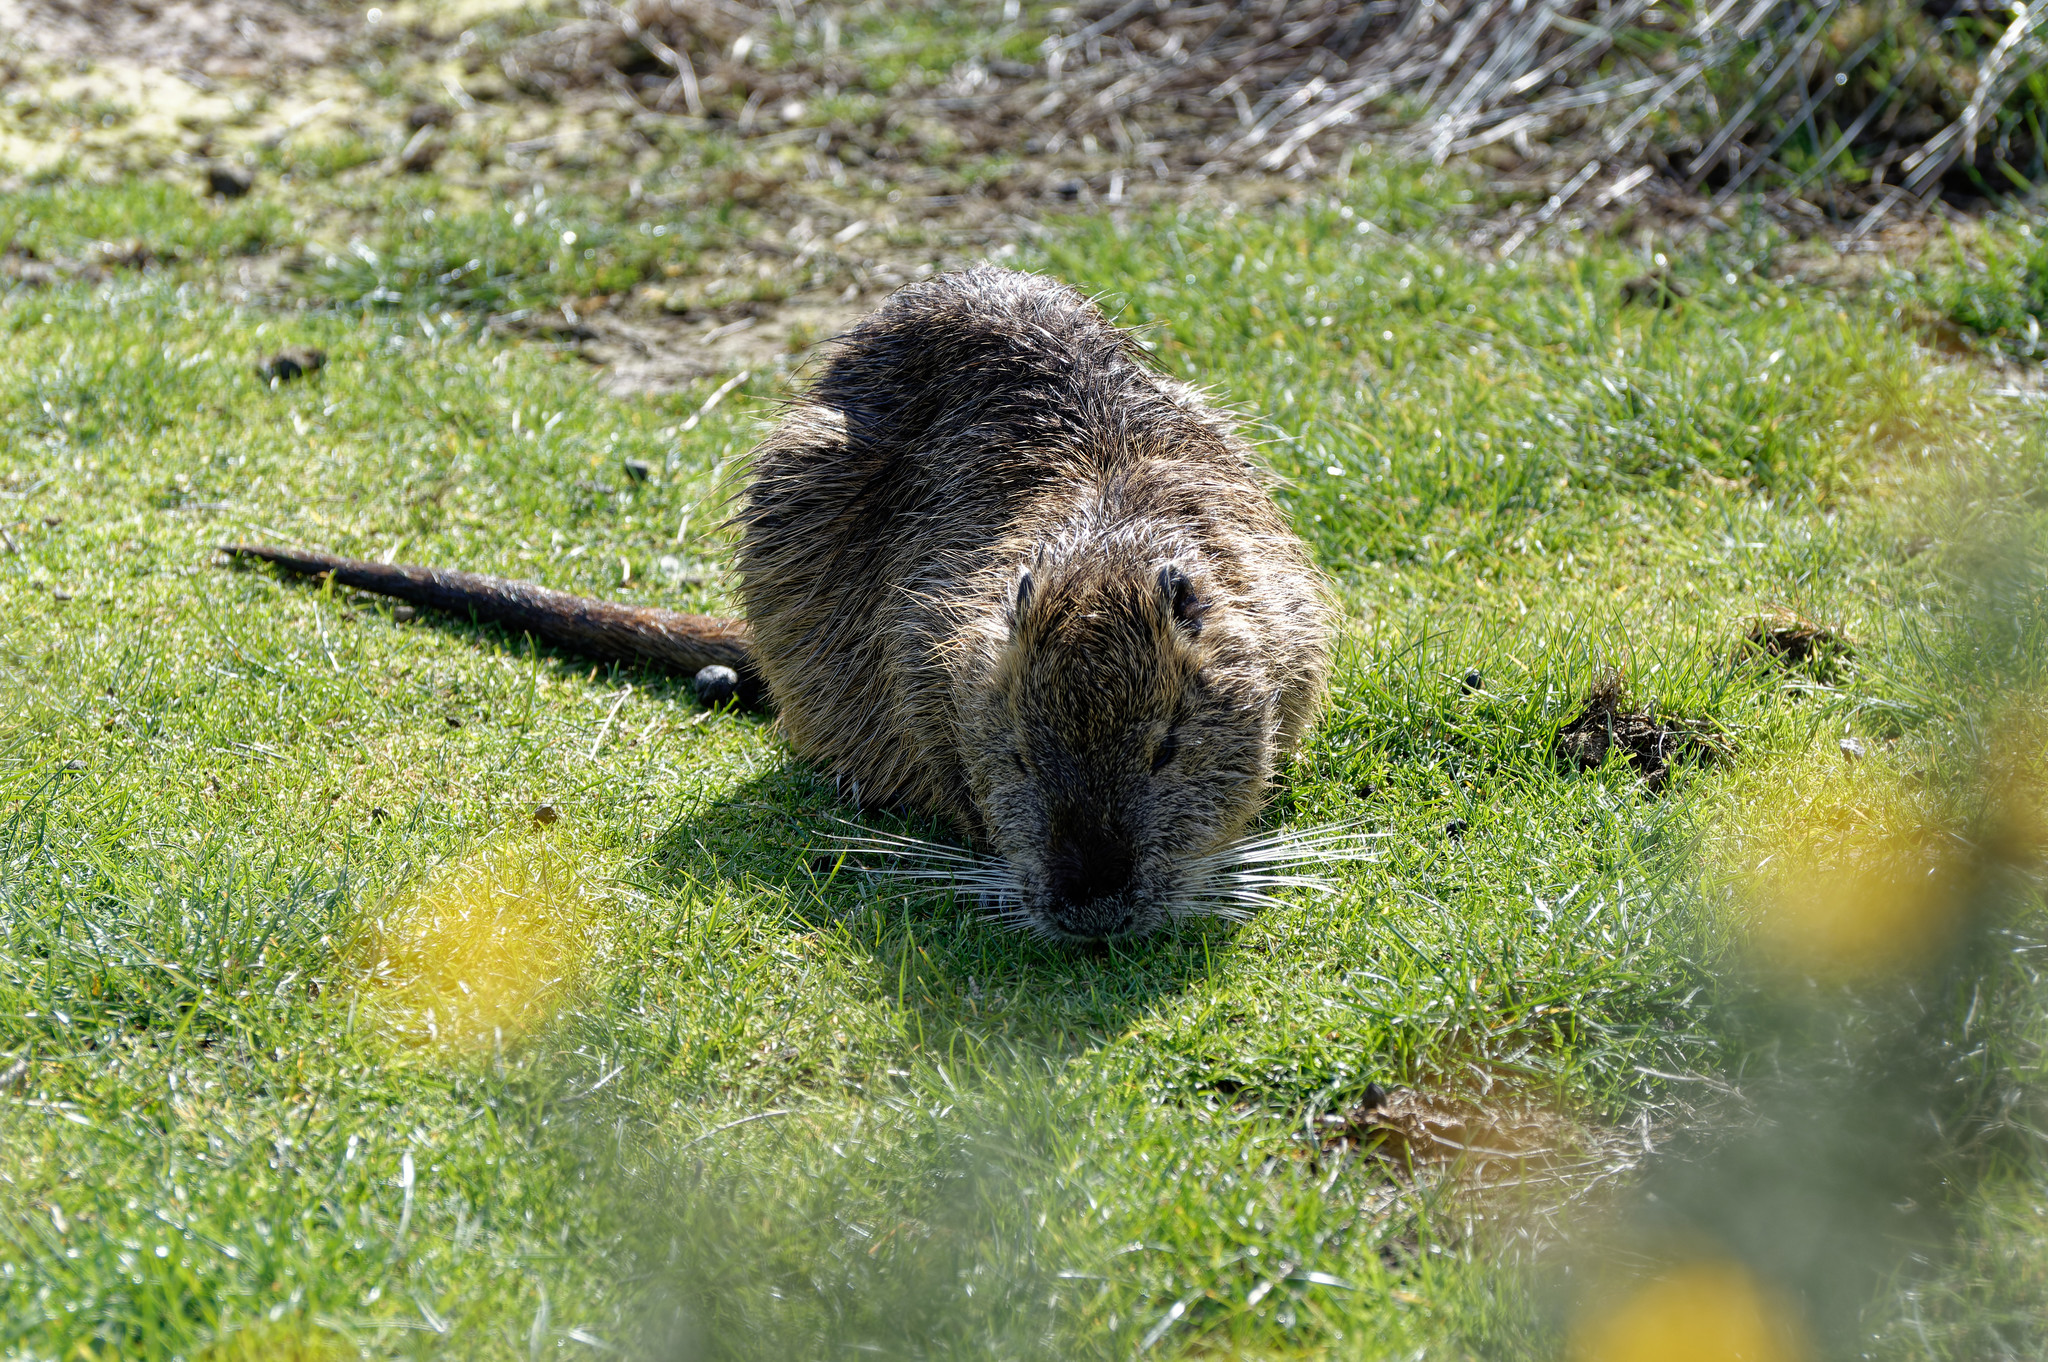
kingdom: Animalia
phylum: Chordata
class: Mammalia
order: Rodentia
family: Myocastoridae
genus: Myocastor
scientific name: Myocastor coypus
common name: Coypu
